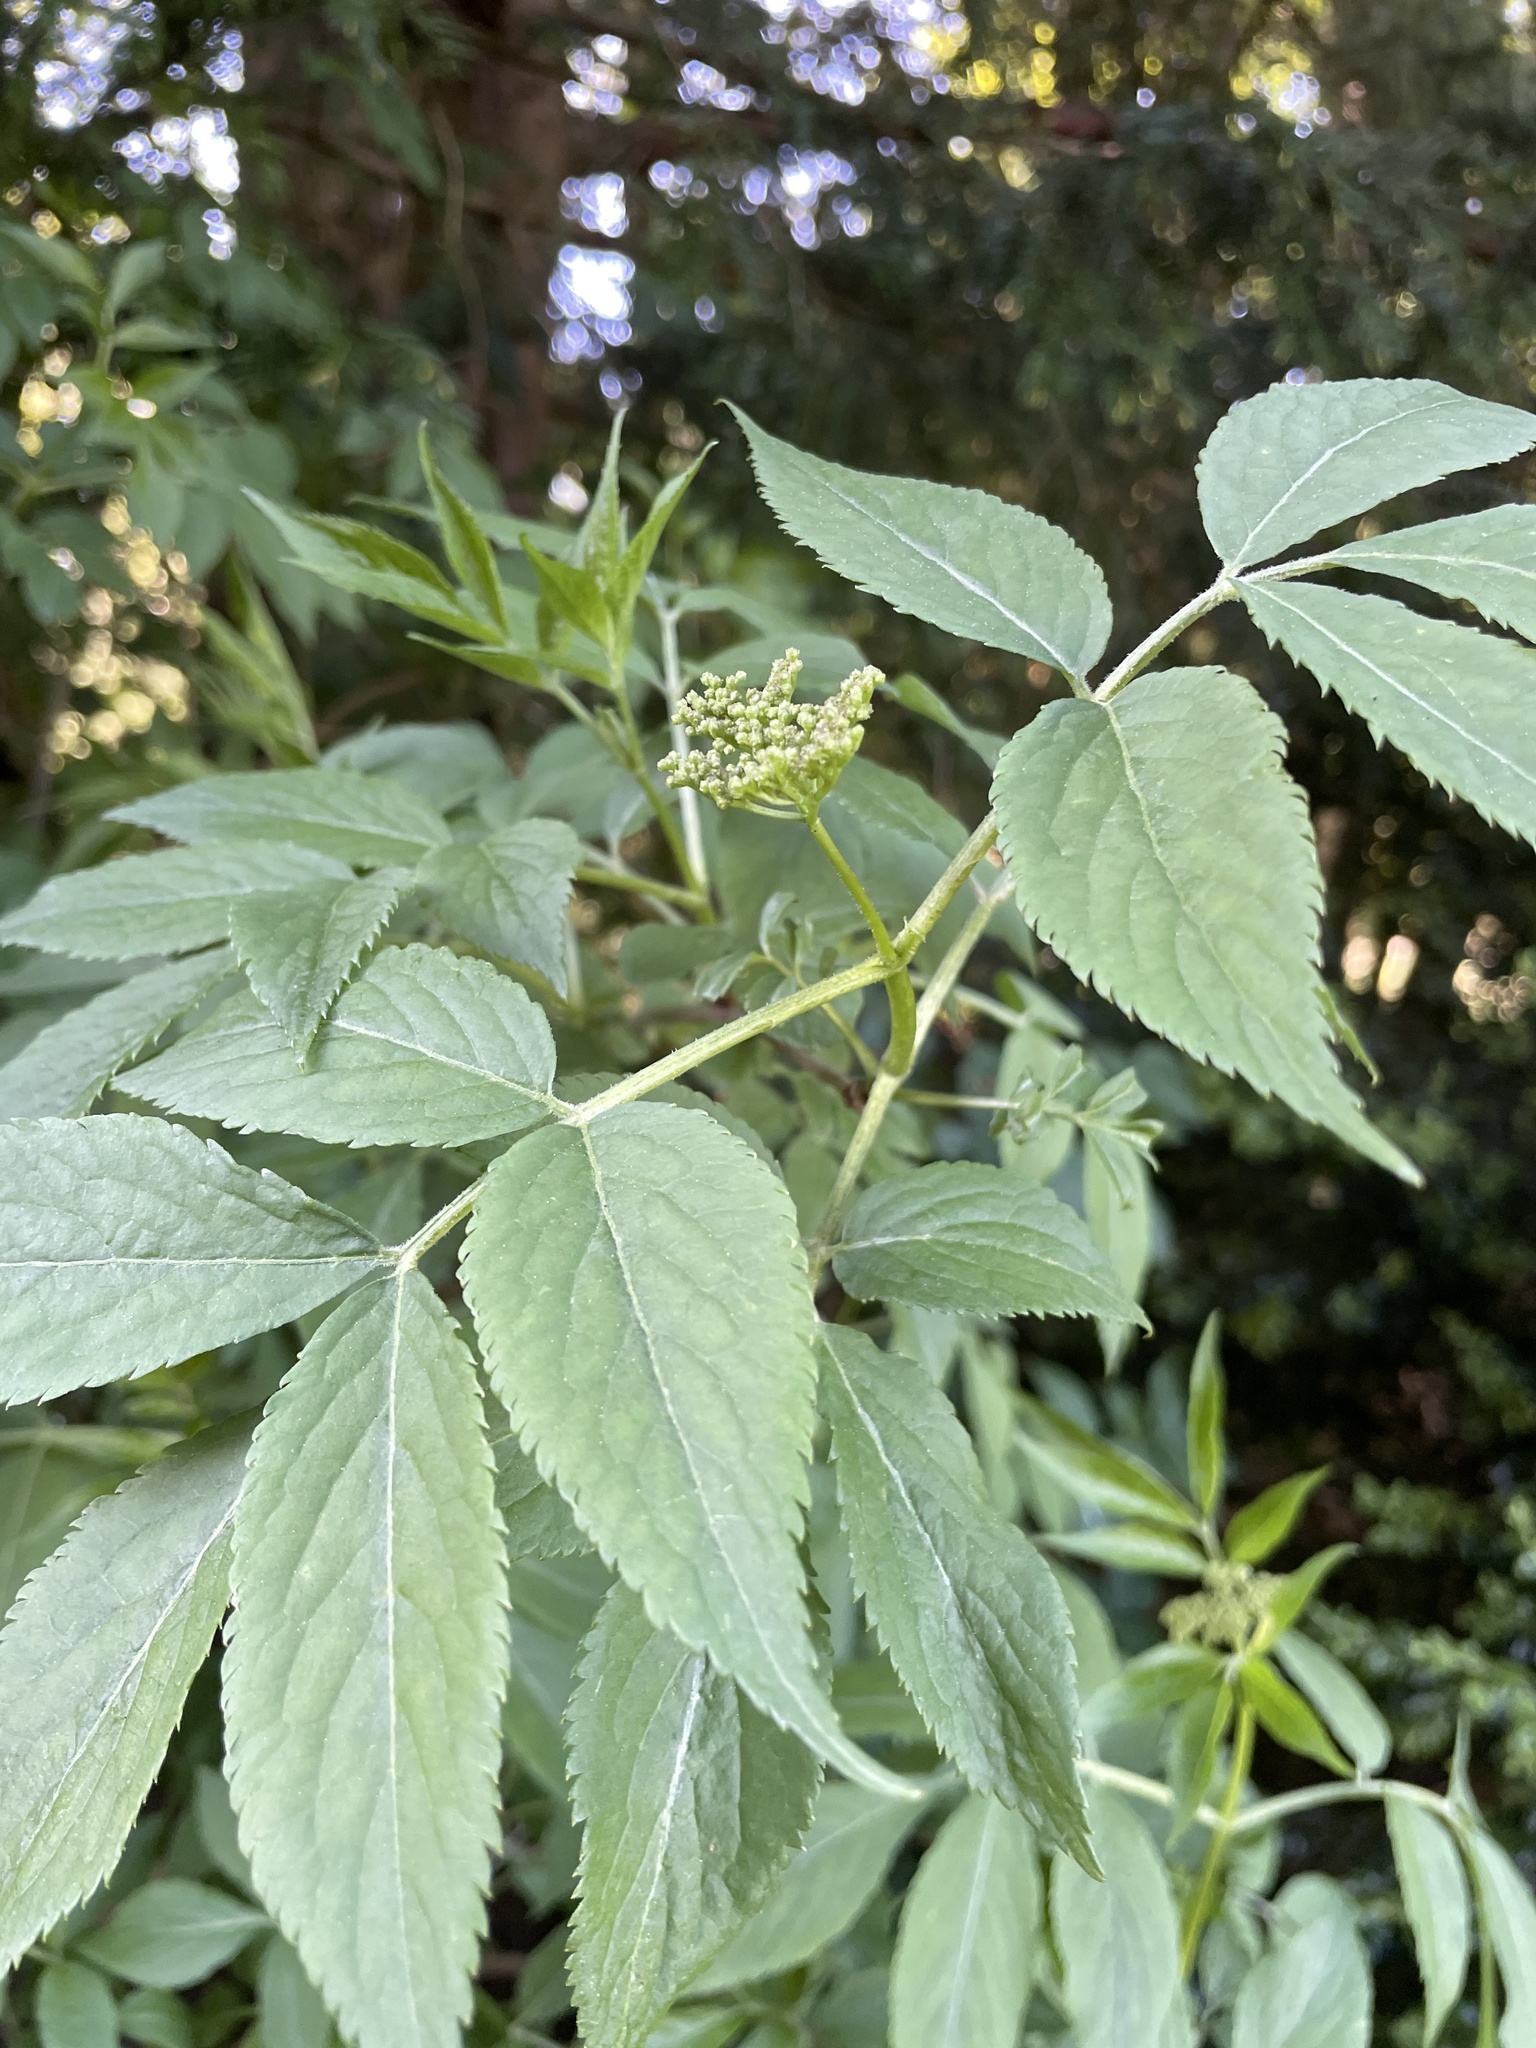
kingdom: Plantae
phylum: Tracheophyta
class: Magnoliopsida
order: Dipsacales
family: Viburnaceae
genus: Sambucus
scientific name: Sambucus nigra
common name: Elder
